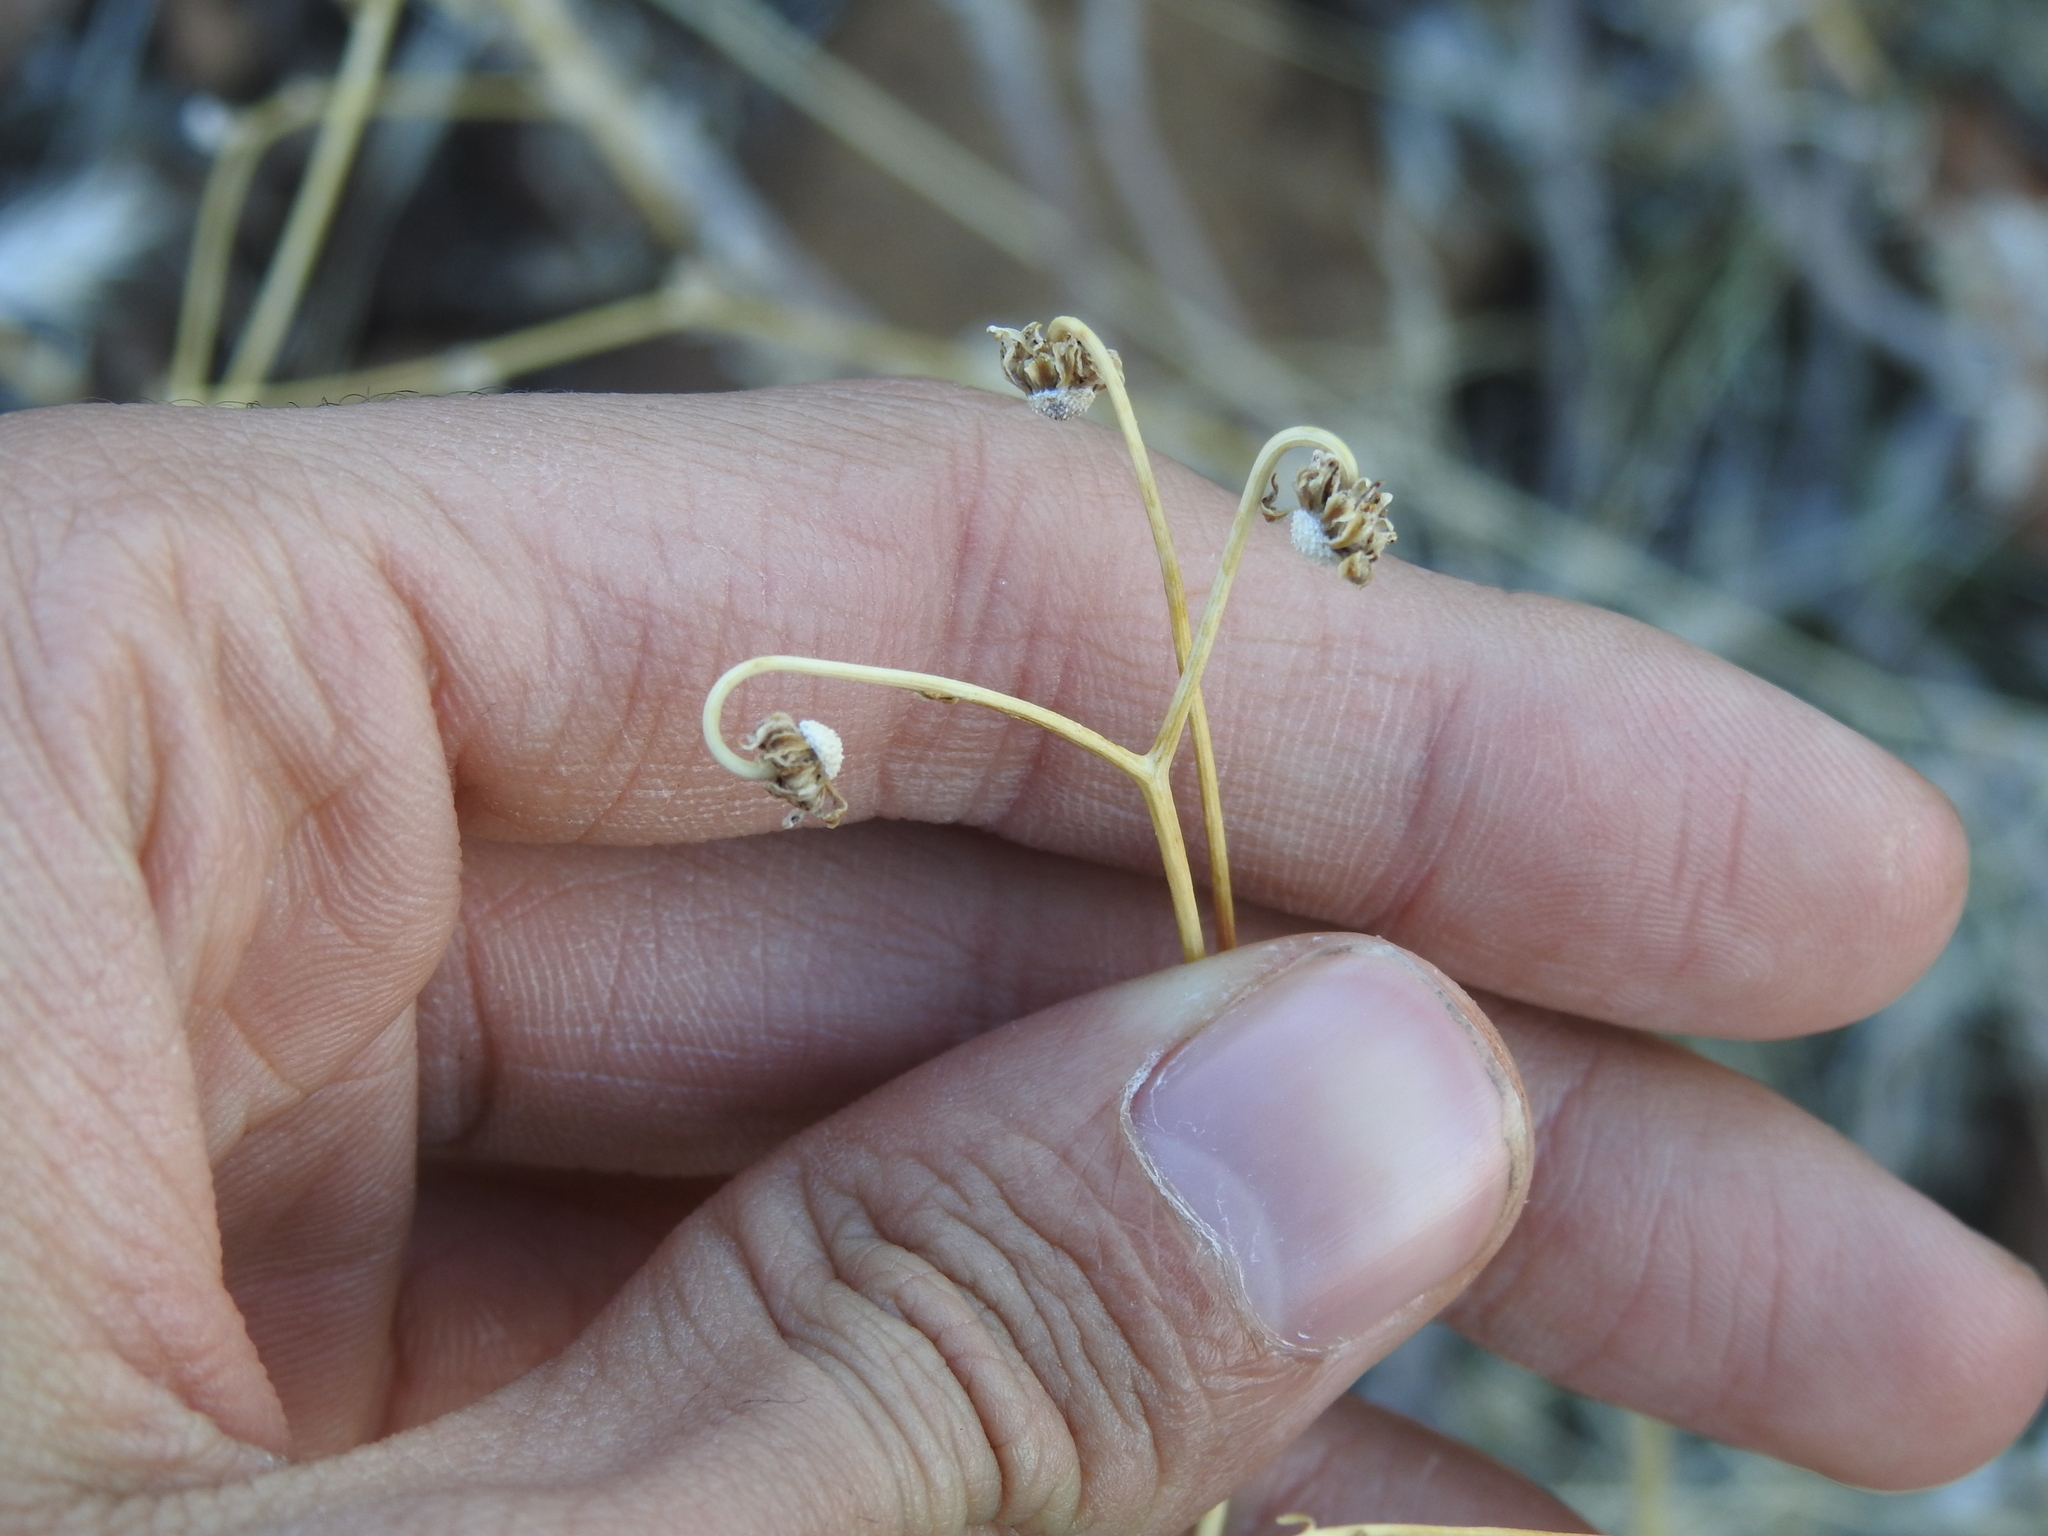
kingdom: Plantae
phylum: Tracheophyta
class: Magnoliopsida
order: Asterales
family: Asteraceae
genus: Encelia
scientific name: Encelia farinosa
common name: Brittlebush
